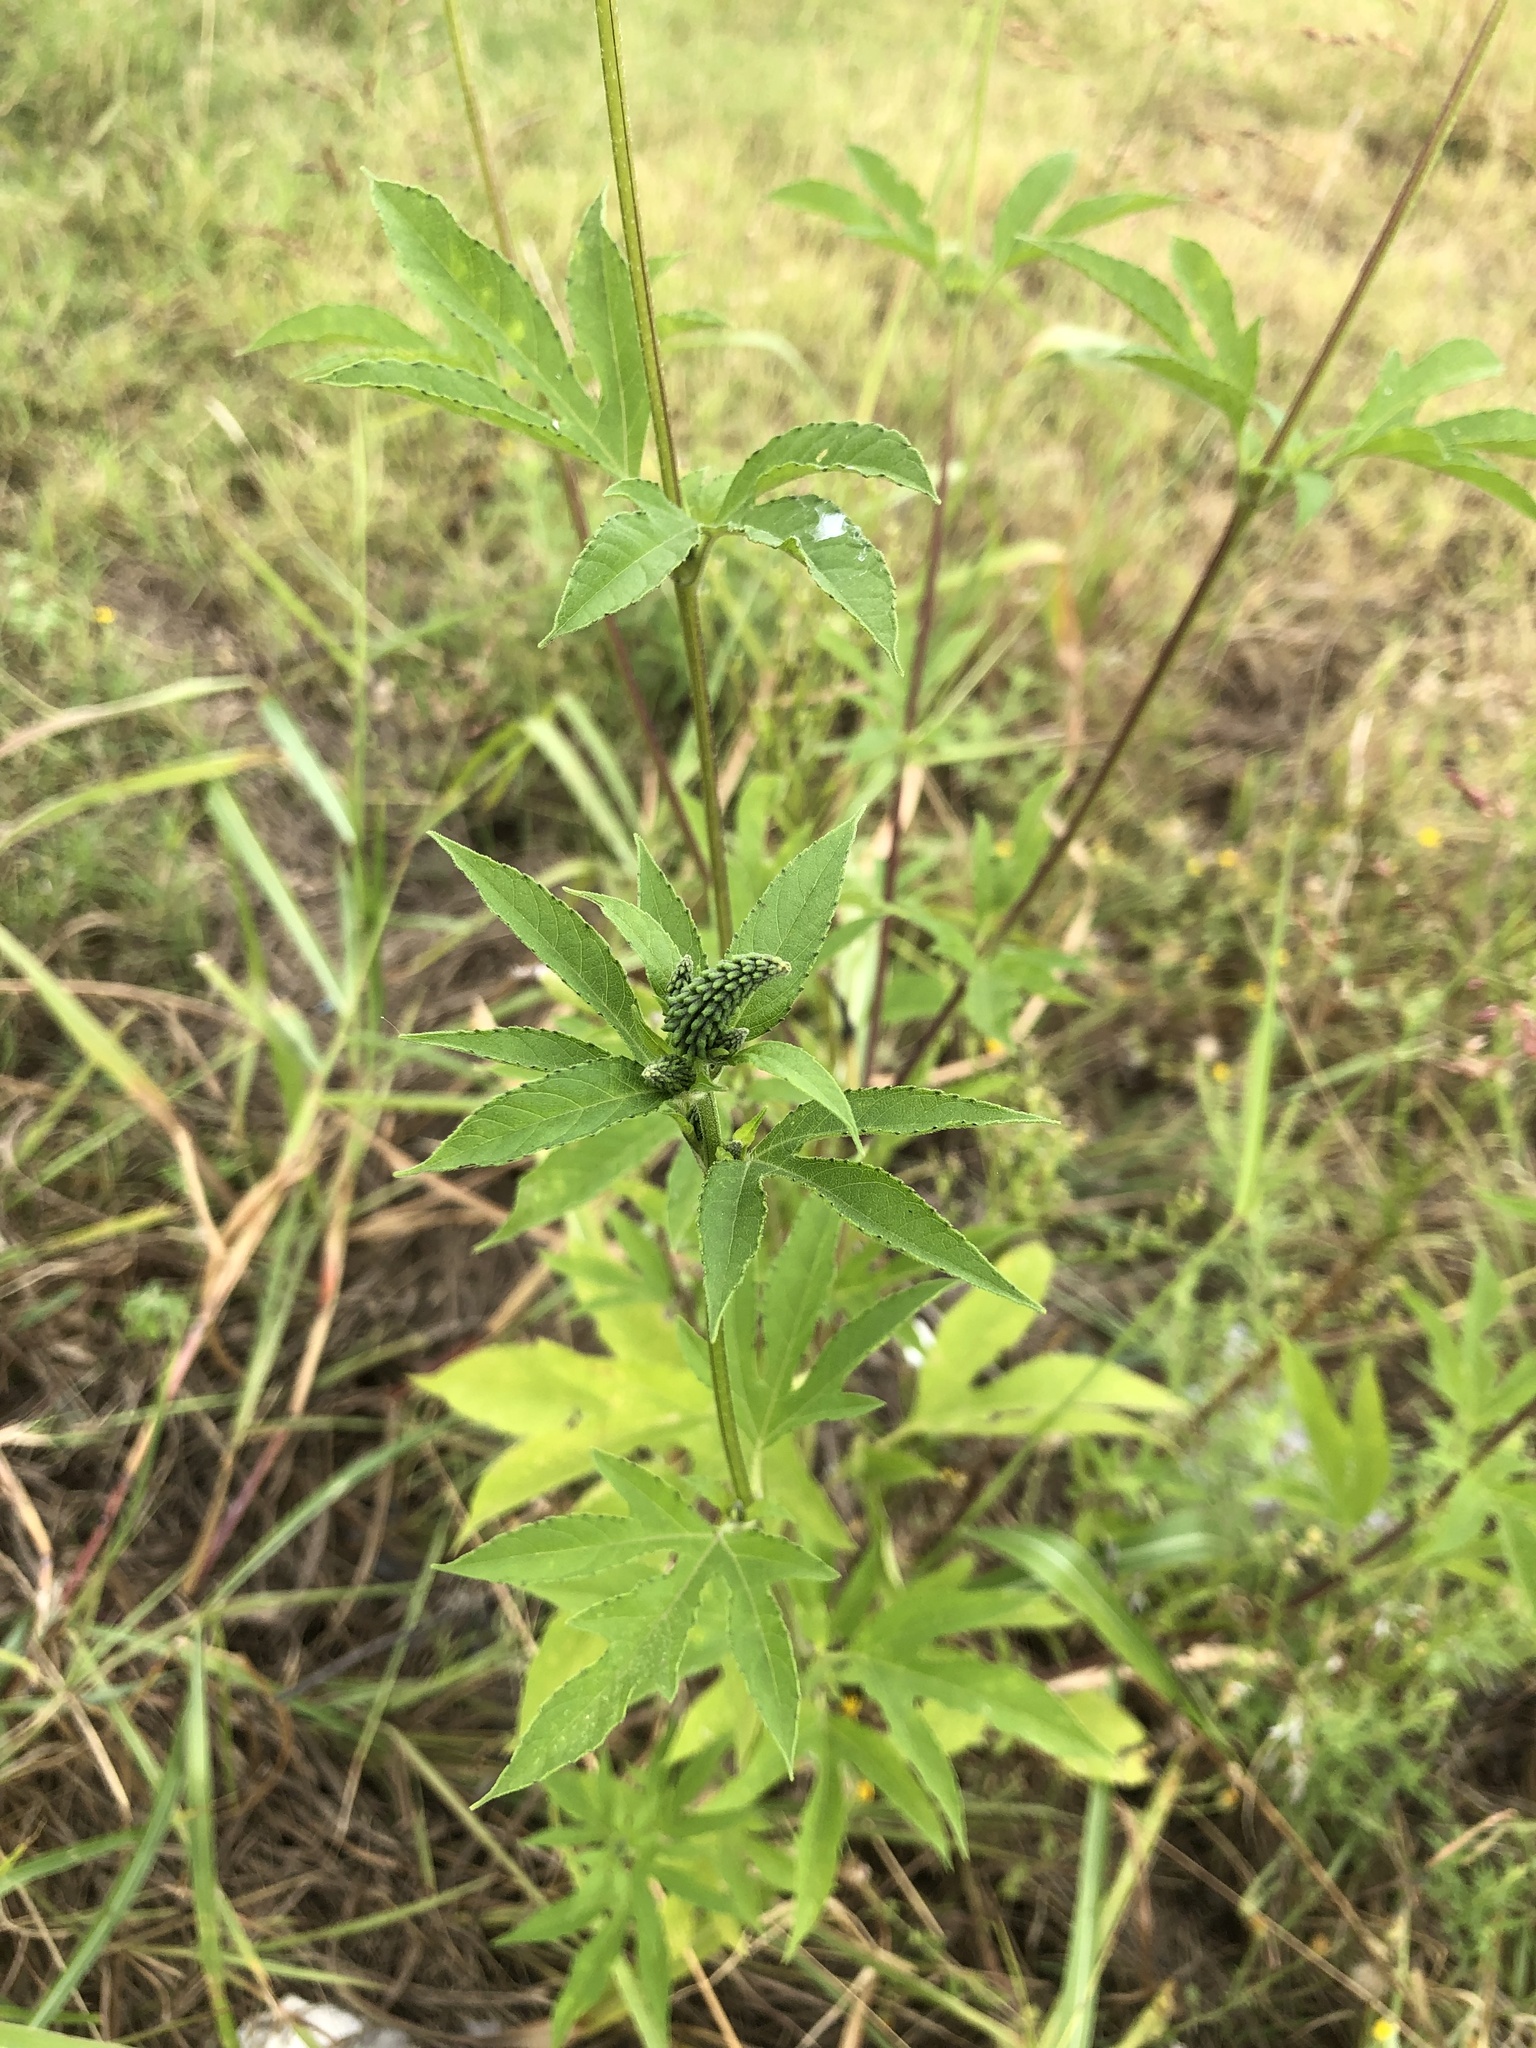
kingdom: Plantae
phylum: Tracheophyta
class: Magnoliopsida
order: Asterales
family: Asteraceae
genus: Ambrosia
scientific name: Ambrosia trifida
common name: Giant ragweed
